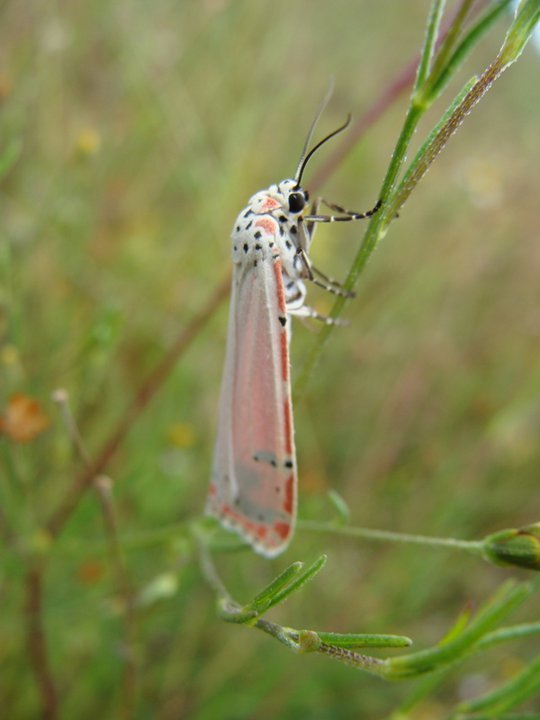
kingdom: Animalia
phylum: Arthropoda
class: Insecta
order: Lepidoptera
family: Erebidae
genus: Utetheisa
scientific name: Utetheisa ornatrix
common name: Beautiful utetheisa
